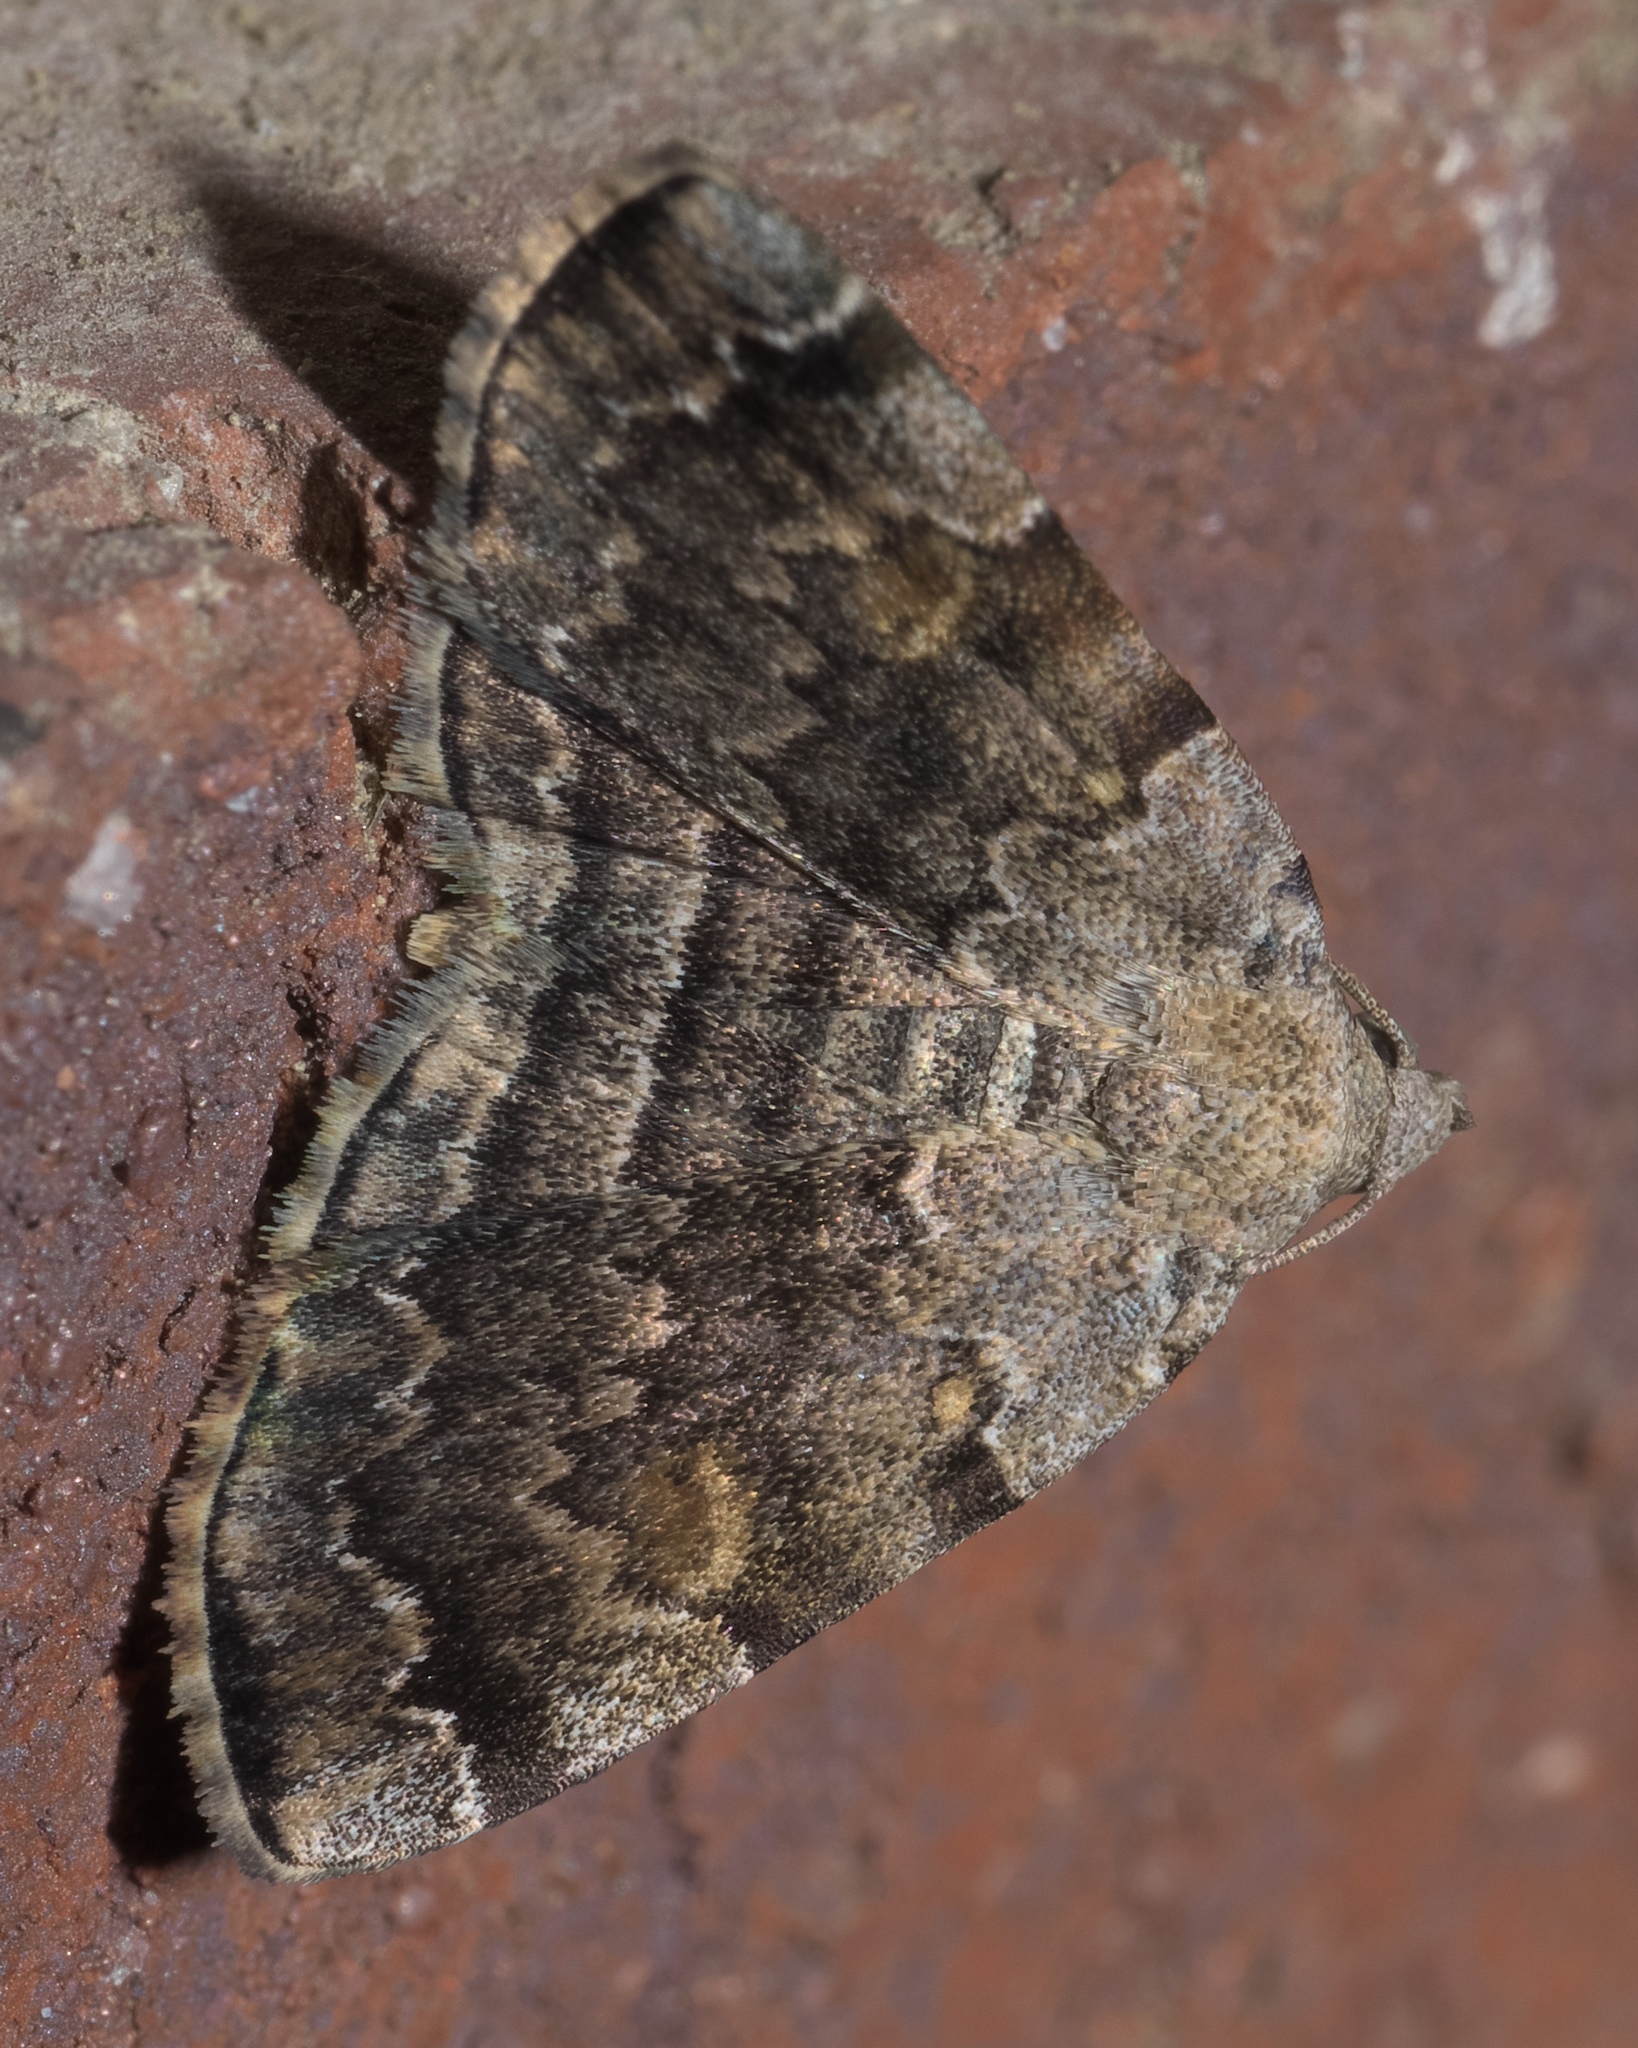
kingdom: Animalia
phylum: Arthropoda
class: Insecta
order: Lepidoptera
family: Erebidae
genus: Idia
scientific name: Idia americalis
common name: American idia moth
